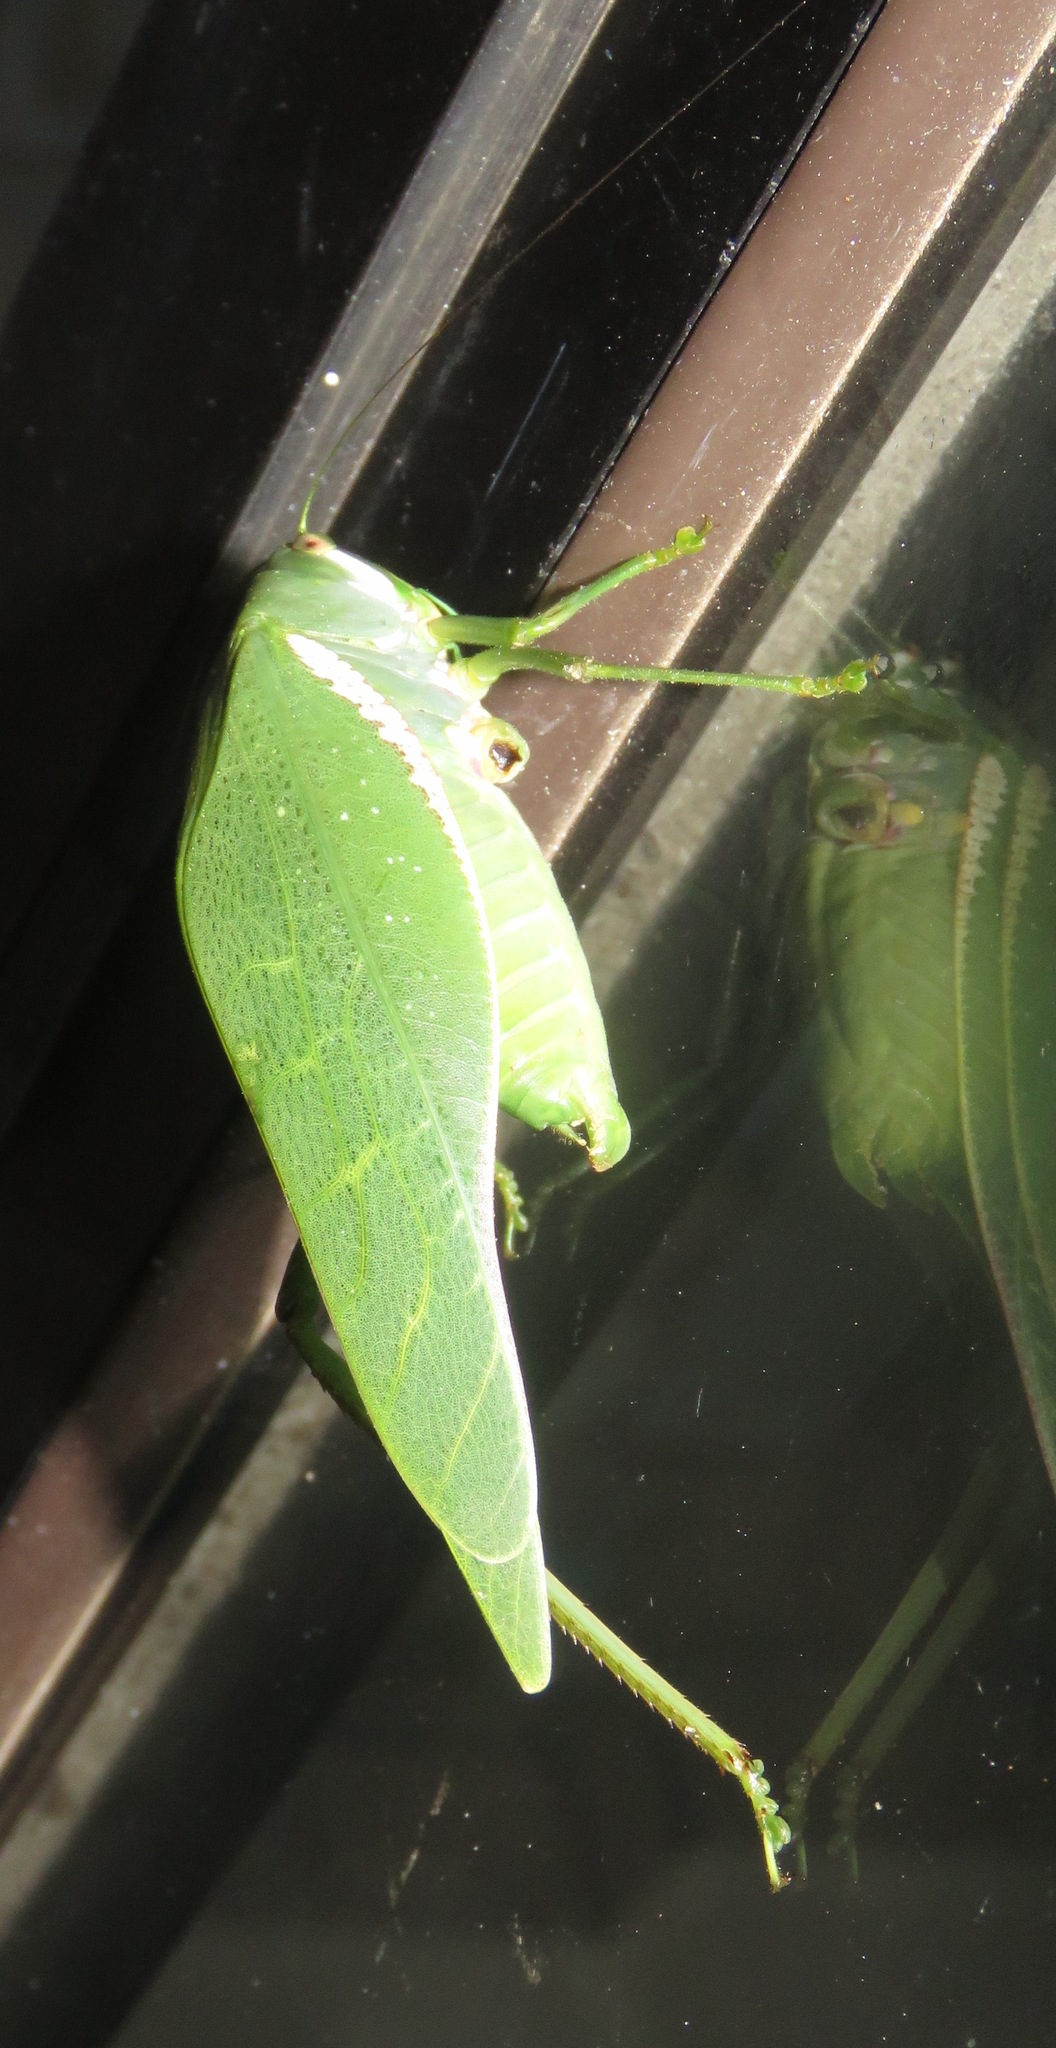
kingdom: Animalia
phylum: Arthropoda
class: Insecta
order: Orthoptera
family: Tettigoniidae
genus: Philophyllia
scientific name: Philophyllia guttulata
